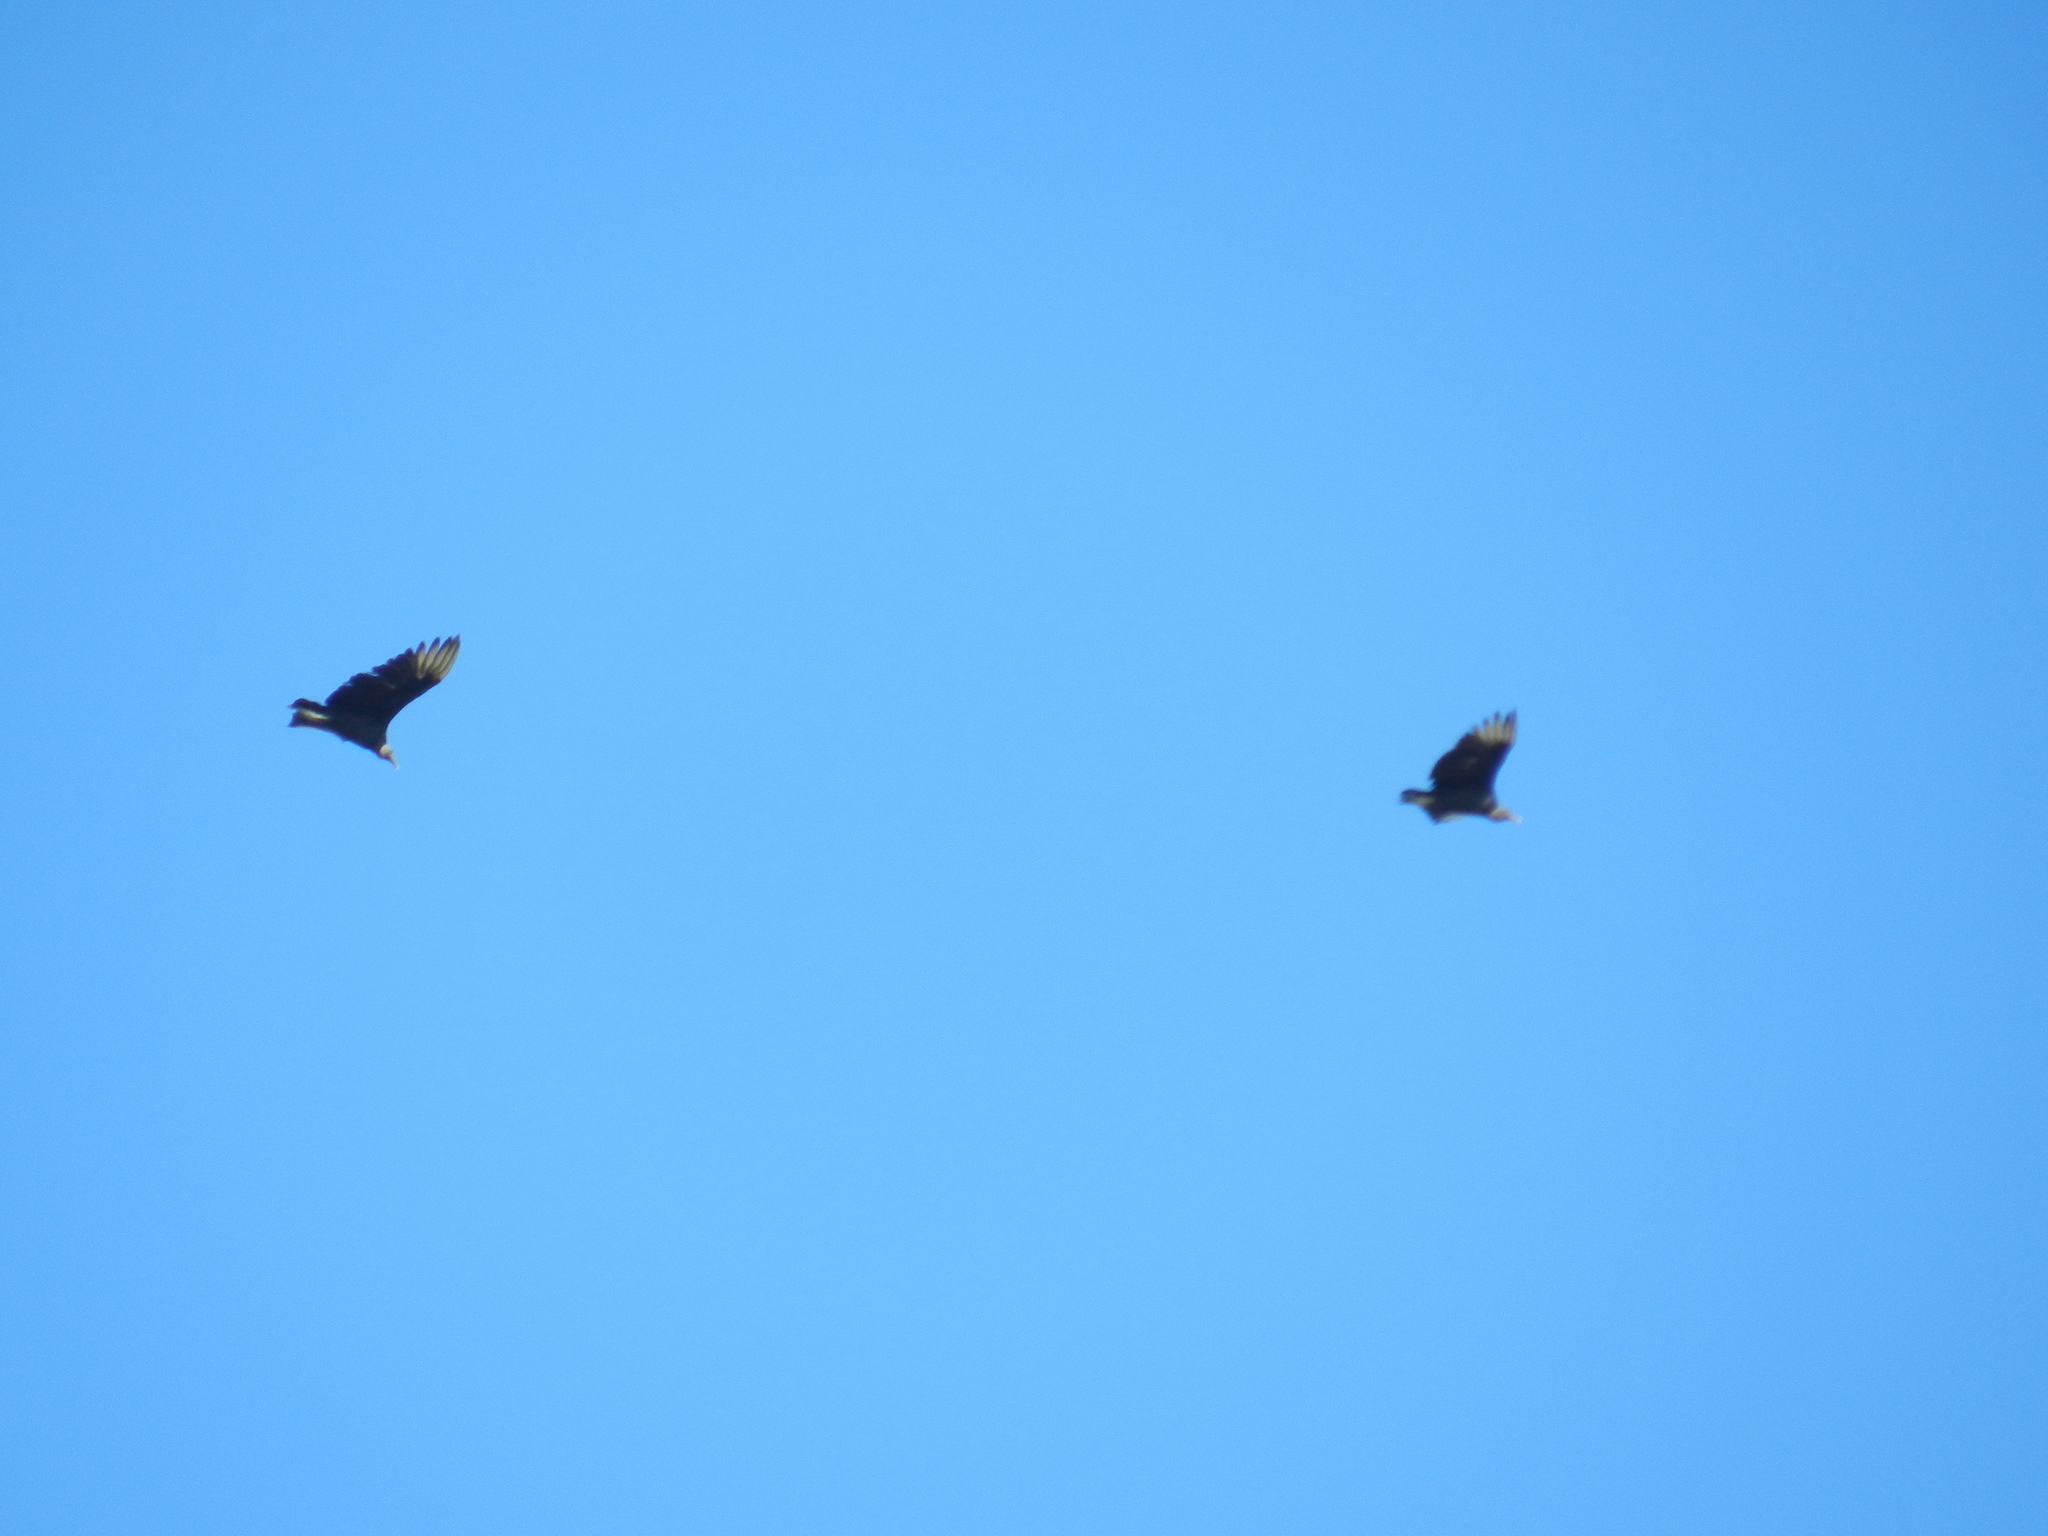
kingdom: Animalia
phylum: Chordata
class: Aves
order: Accipitriformes
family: Cathartidae
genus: Coragyps
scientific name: Coragyps atratus
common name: Black vulture
